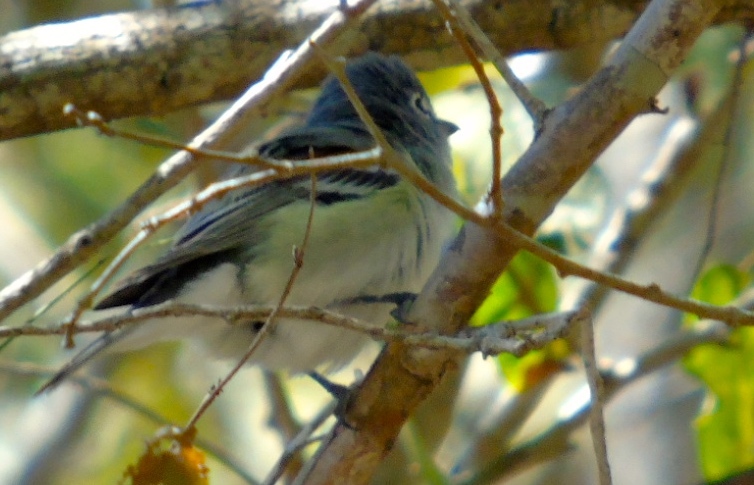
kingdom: Animalia
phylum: Chordata
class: Aves
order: Passeriformes
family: Vireonidae
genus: Vireo
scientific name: Vireo cassinii
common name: Cassin's vireo
